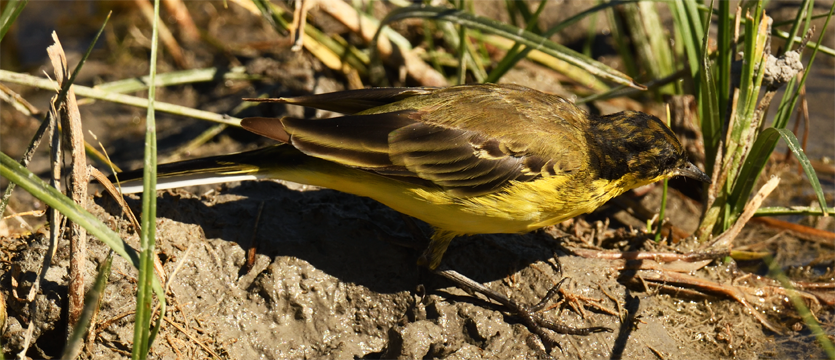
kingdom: Animalia
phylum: Chordata
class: Aves
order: Passeriformes
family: Motacillidae
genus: Motacilla
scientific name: Motacilla flava
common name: Western yellow wagtail
